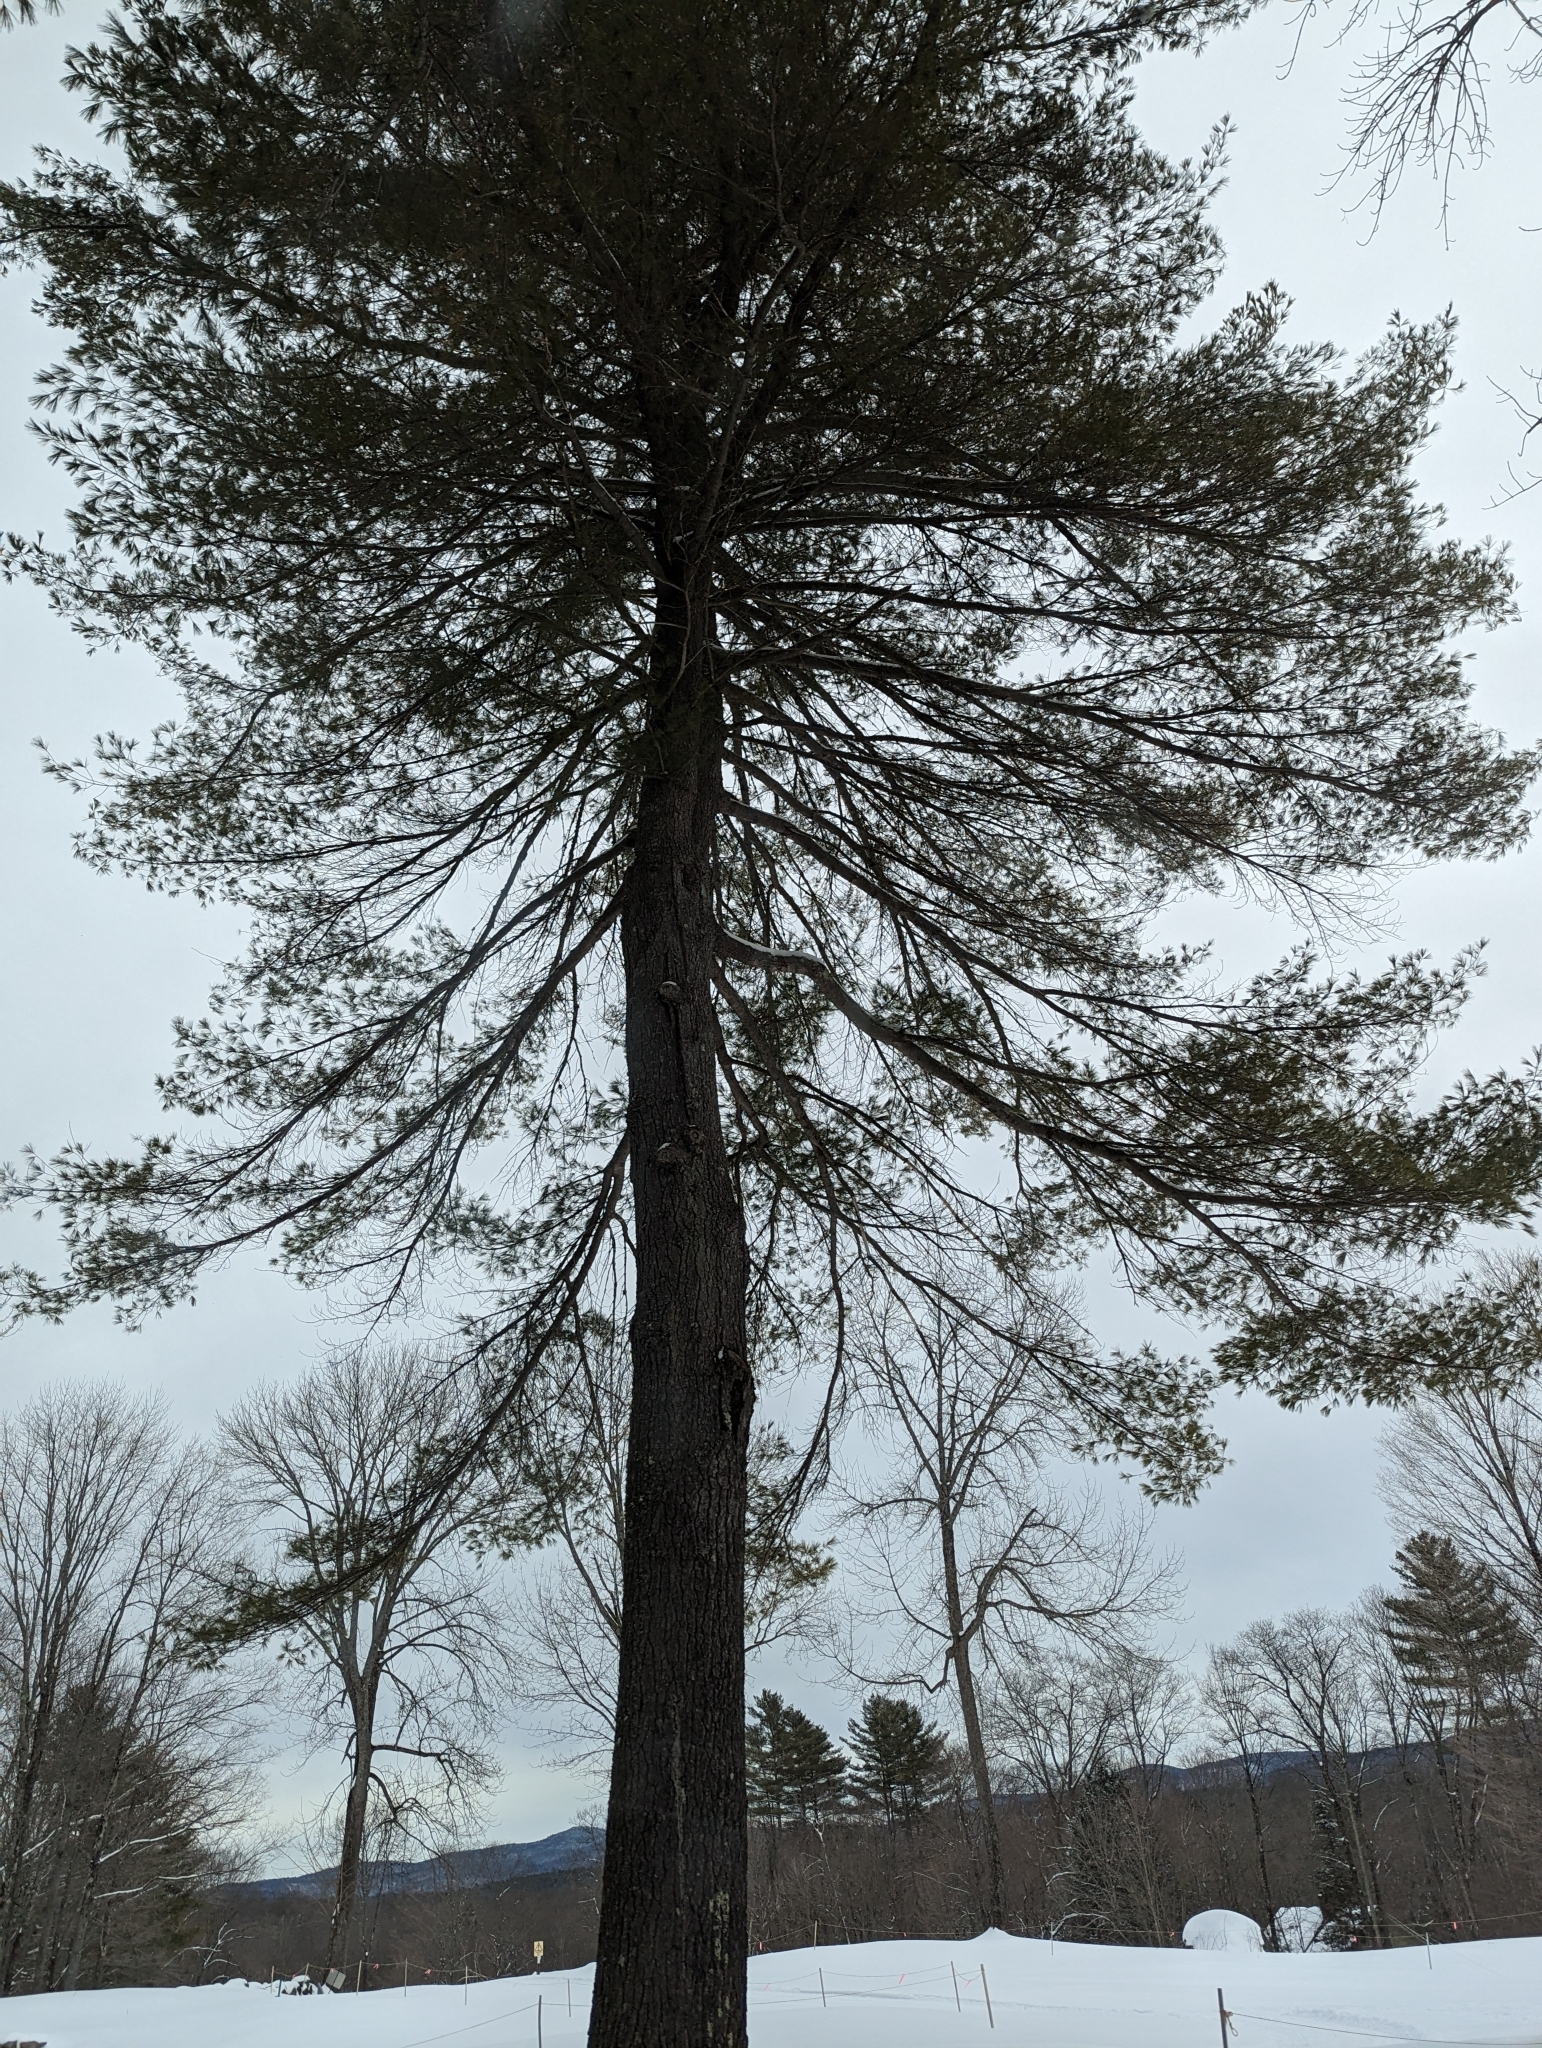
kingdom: Plantae
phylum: Tracheophyta
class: Pinopsida
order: Pinales
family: Pinaceae
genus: Pinus
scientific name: Pinus strobus
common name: Weymouth pine
